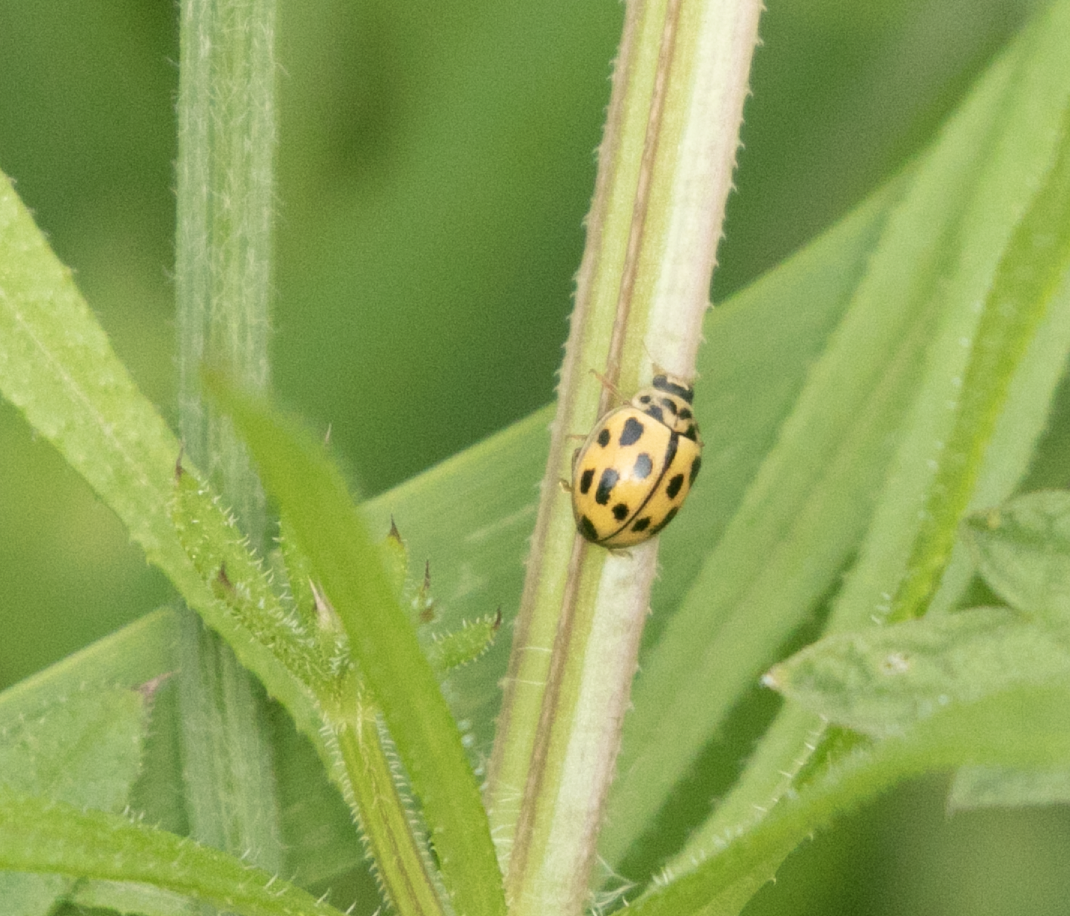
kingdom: Animalia
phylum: Arthropoda
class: Insecta
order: Coleoptera
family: Coccinellidae
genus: Propylaea
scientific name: Propylaea quatuordecimpunctata
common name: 14-spotted ladybird beetle
